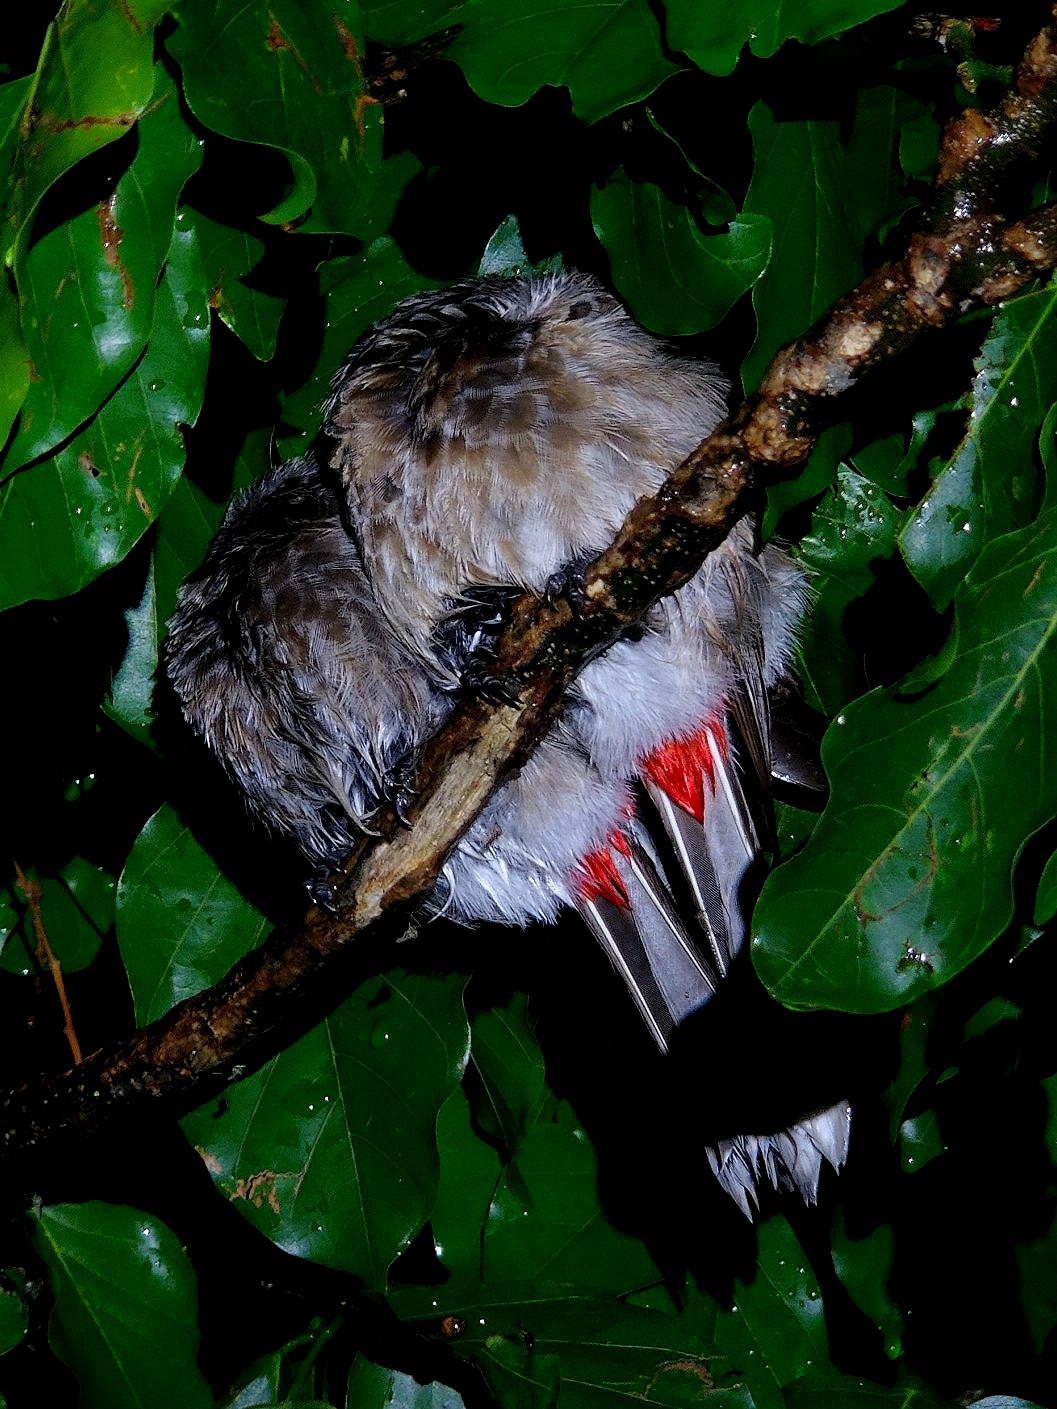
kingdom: Animalia
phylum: Chordata
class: Aves
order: Passeriformes
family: Pycnonotidae
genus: Pycnonotus
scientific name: Pycnonotus cafer
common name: Red-vented bulbul
